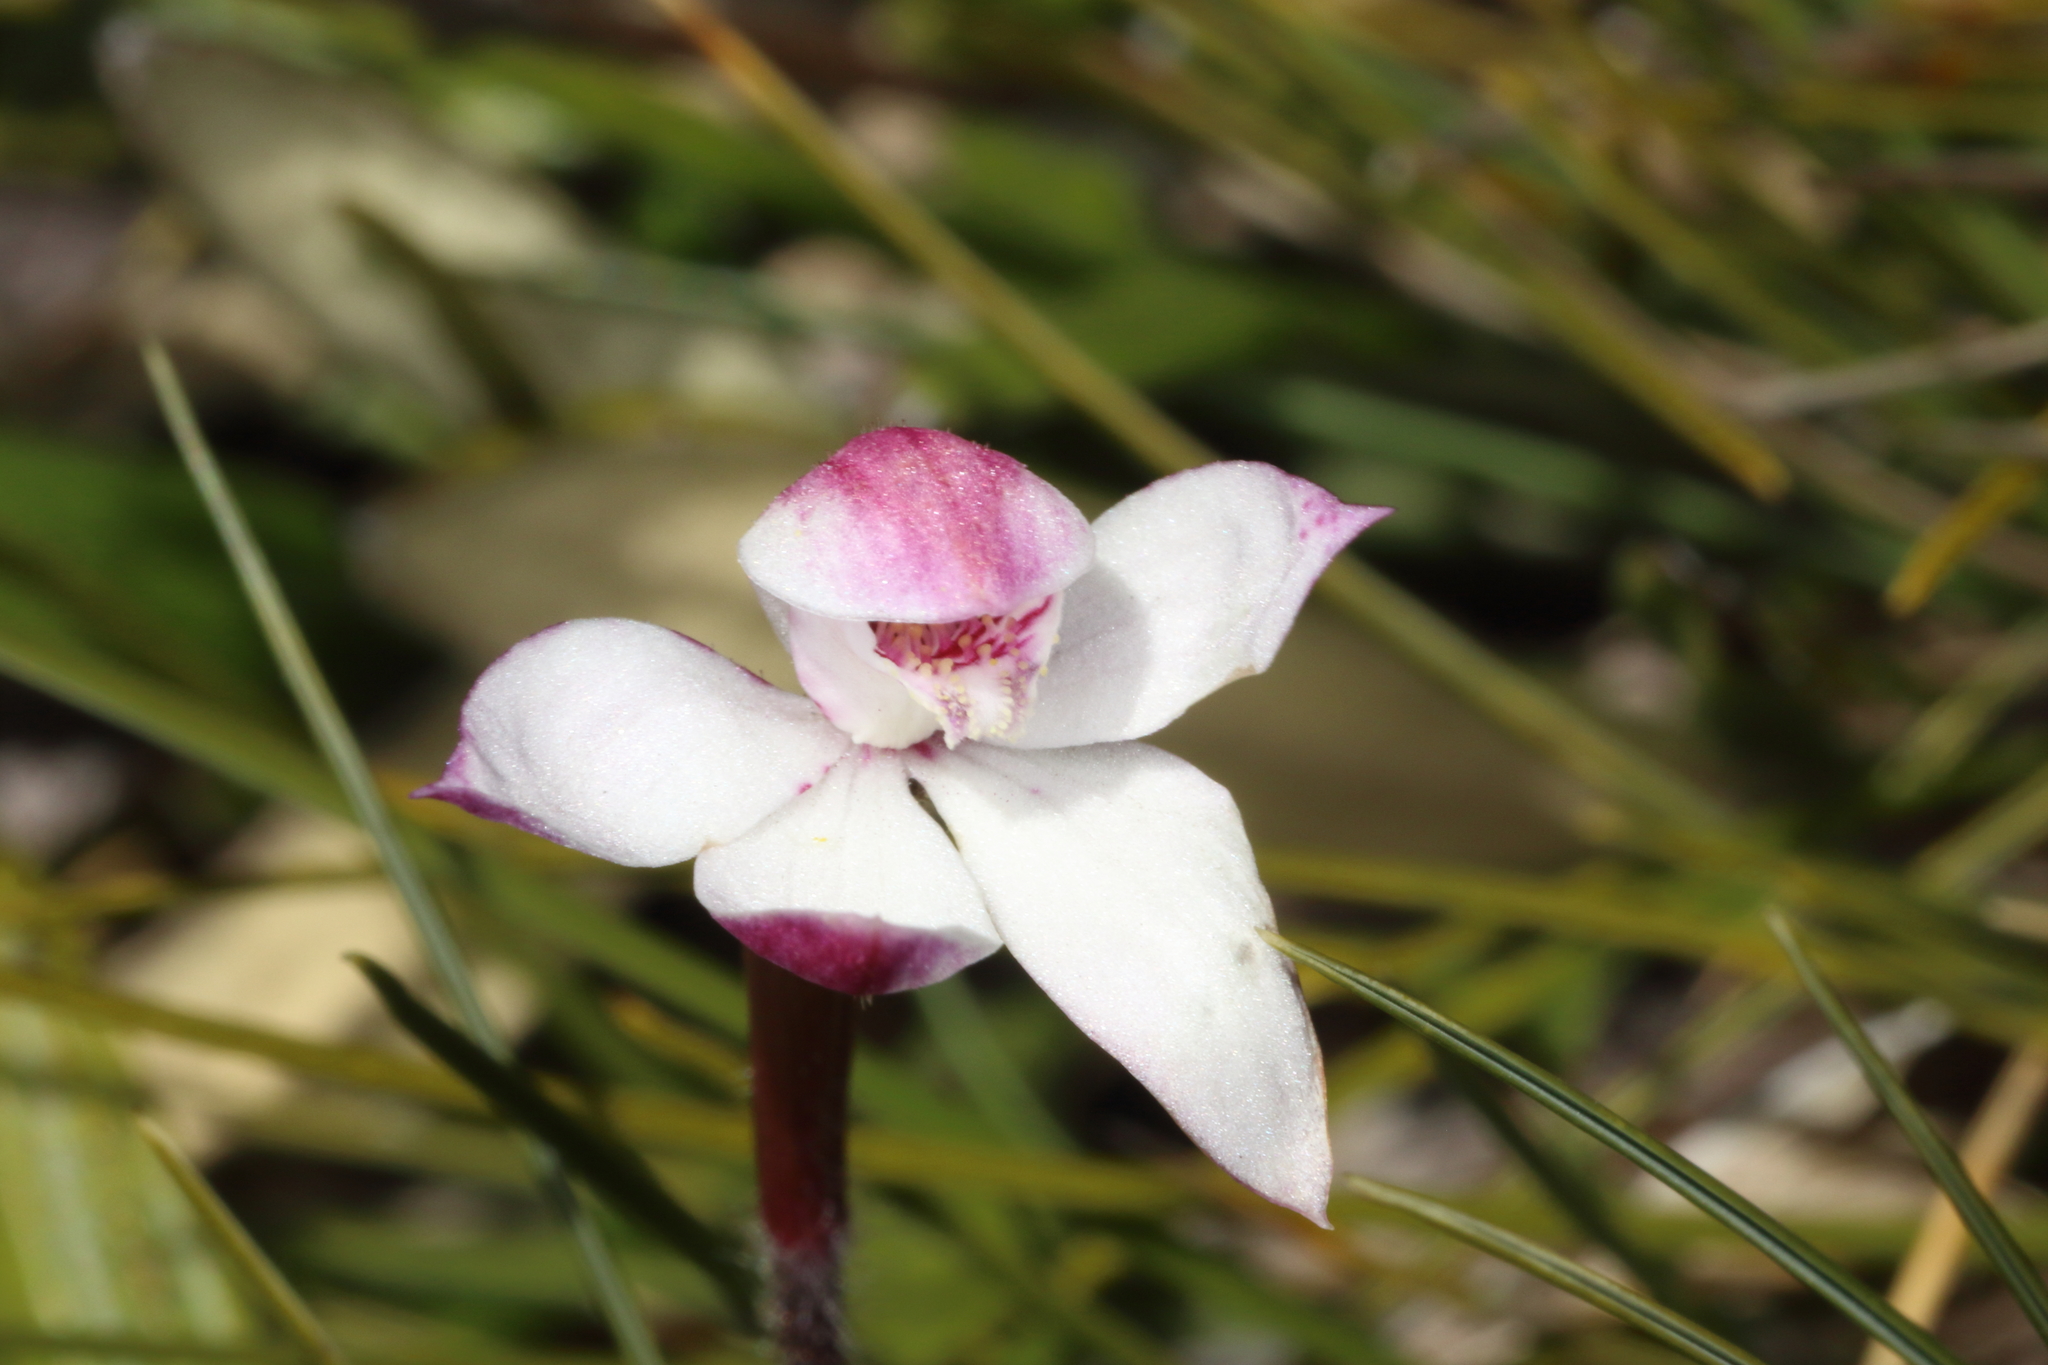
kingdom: Plantae
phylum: Tracheophyta
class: Liliopsida
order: Asparagales
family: Orchidaceae
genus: Caladenia
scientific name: Caladenia lyallii
